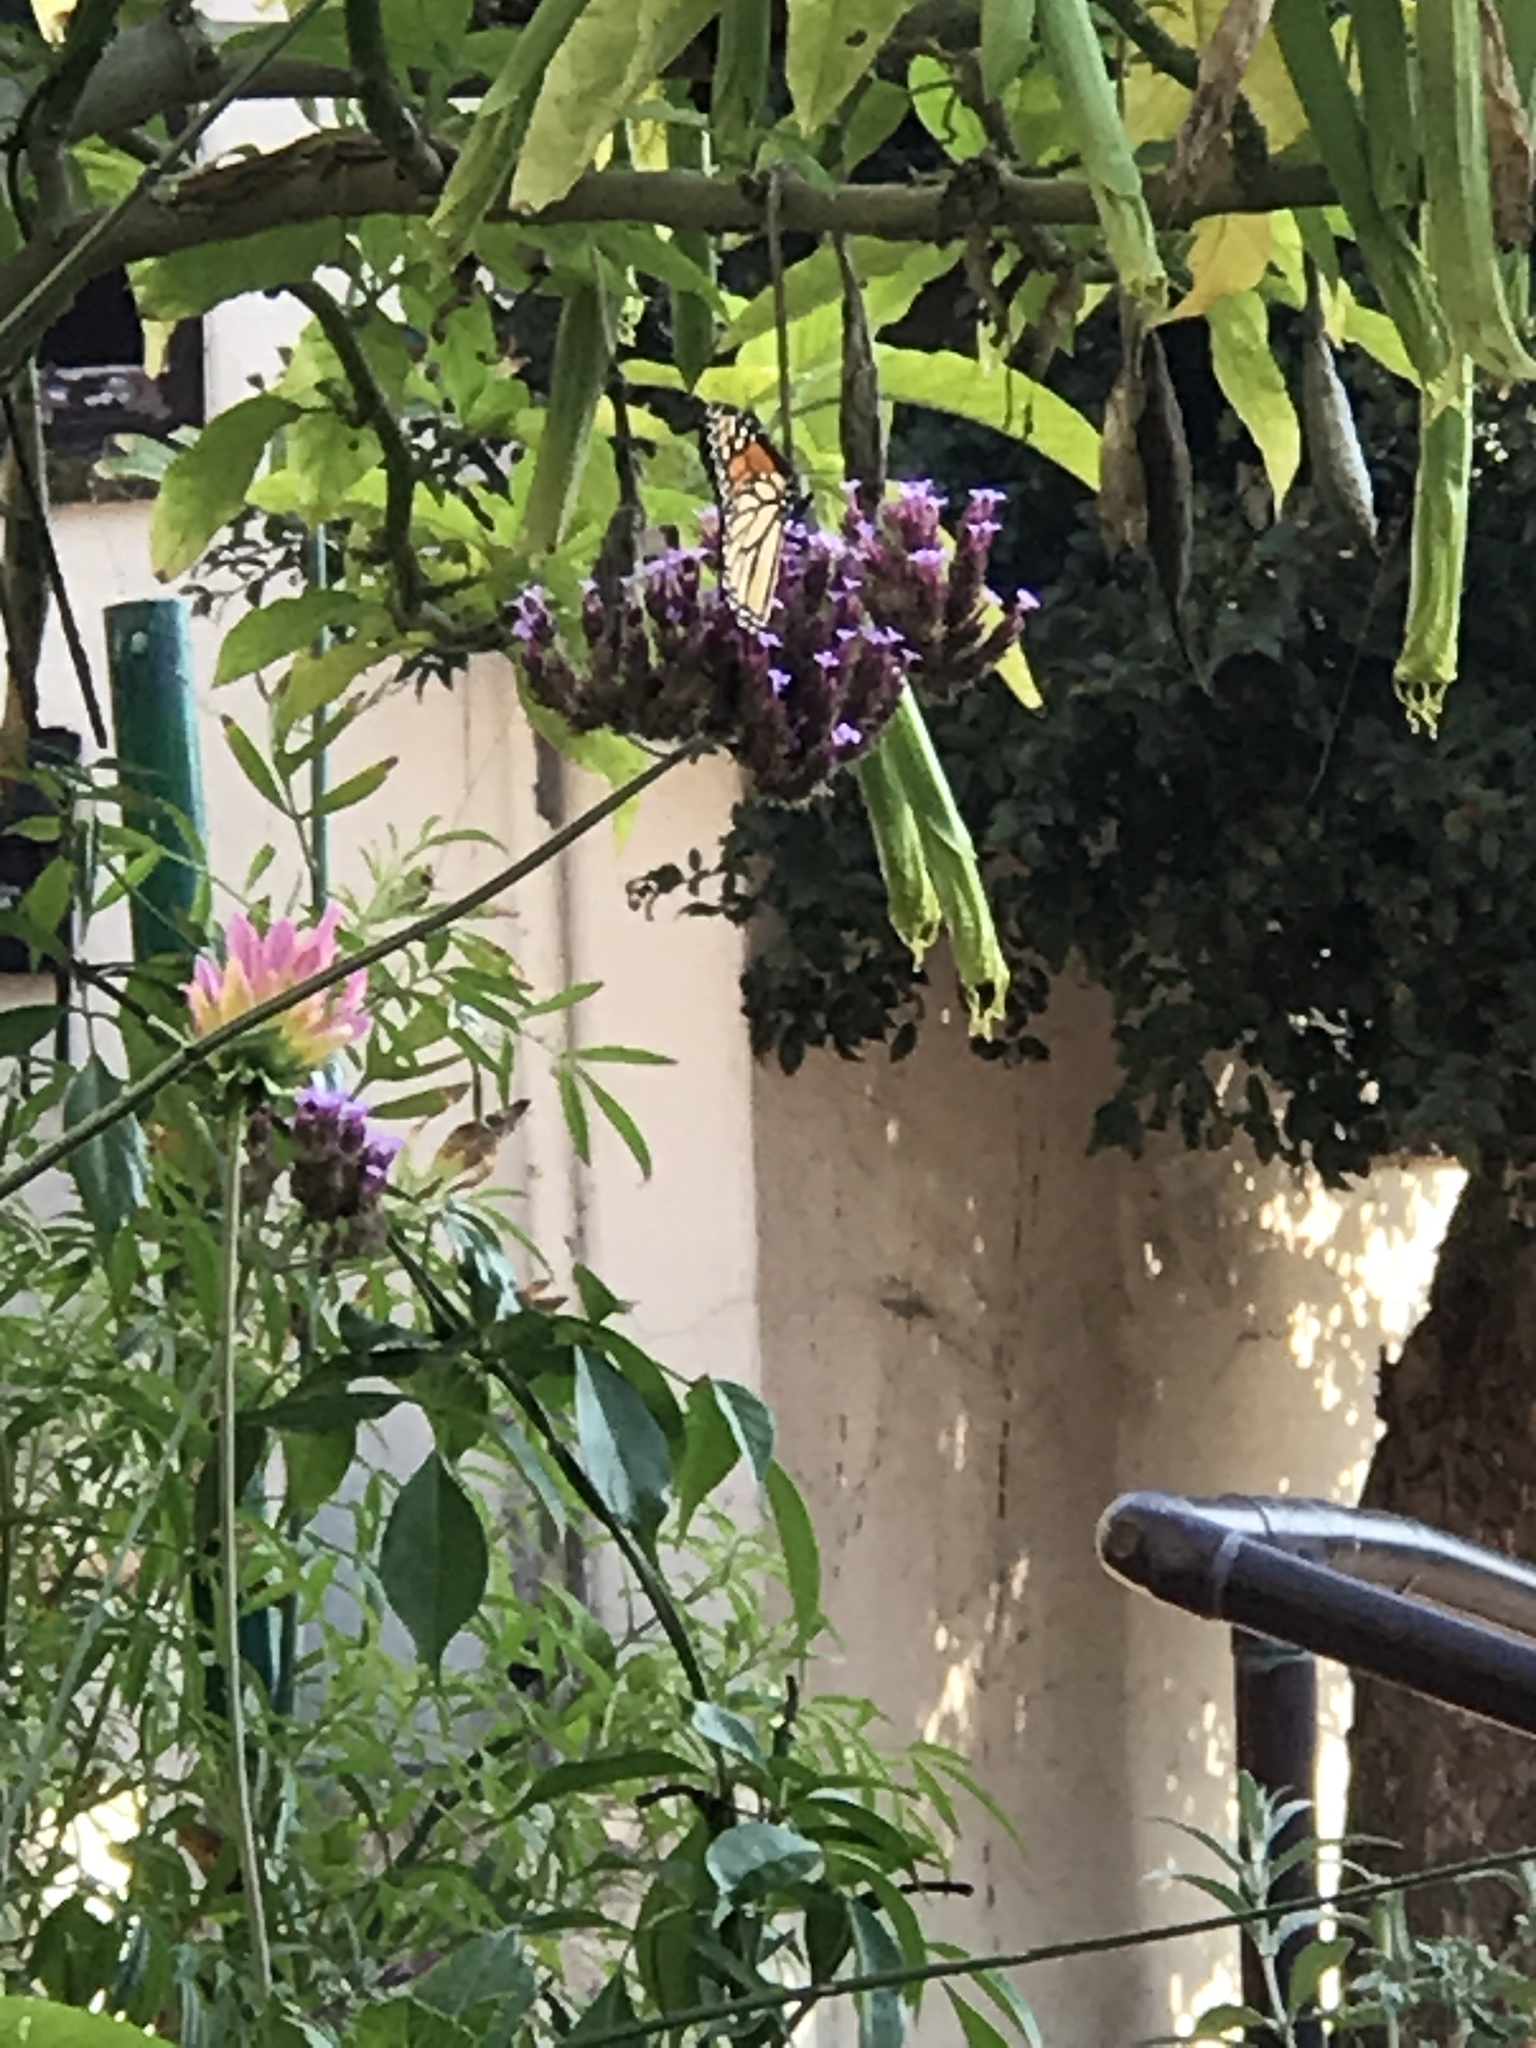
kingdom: Animalia
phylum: Arthropoda
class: Insecta
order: Lepidoptera
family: Nymphalidae
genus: Danaus
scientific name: Danaus plexippus
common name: Monarch
